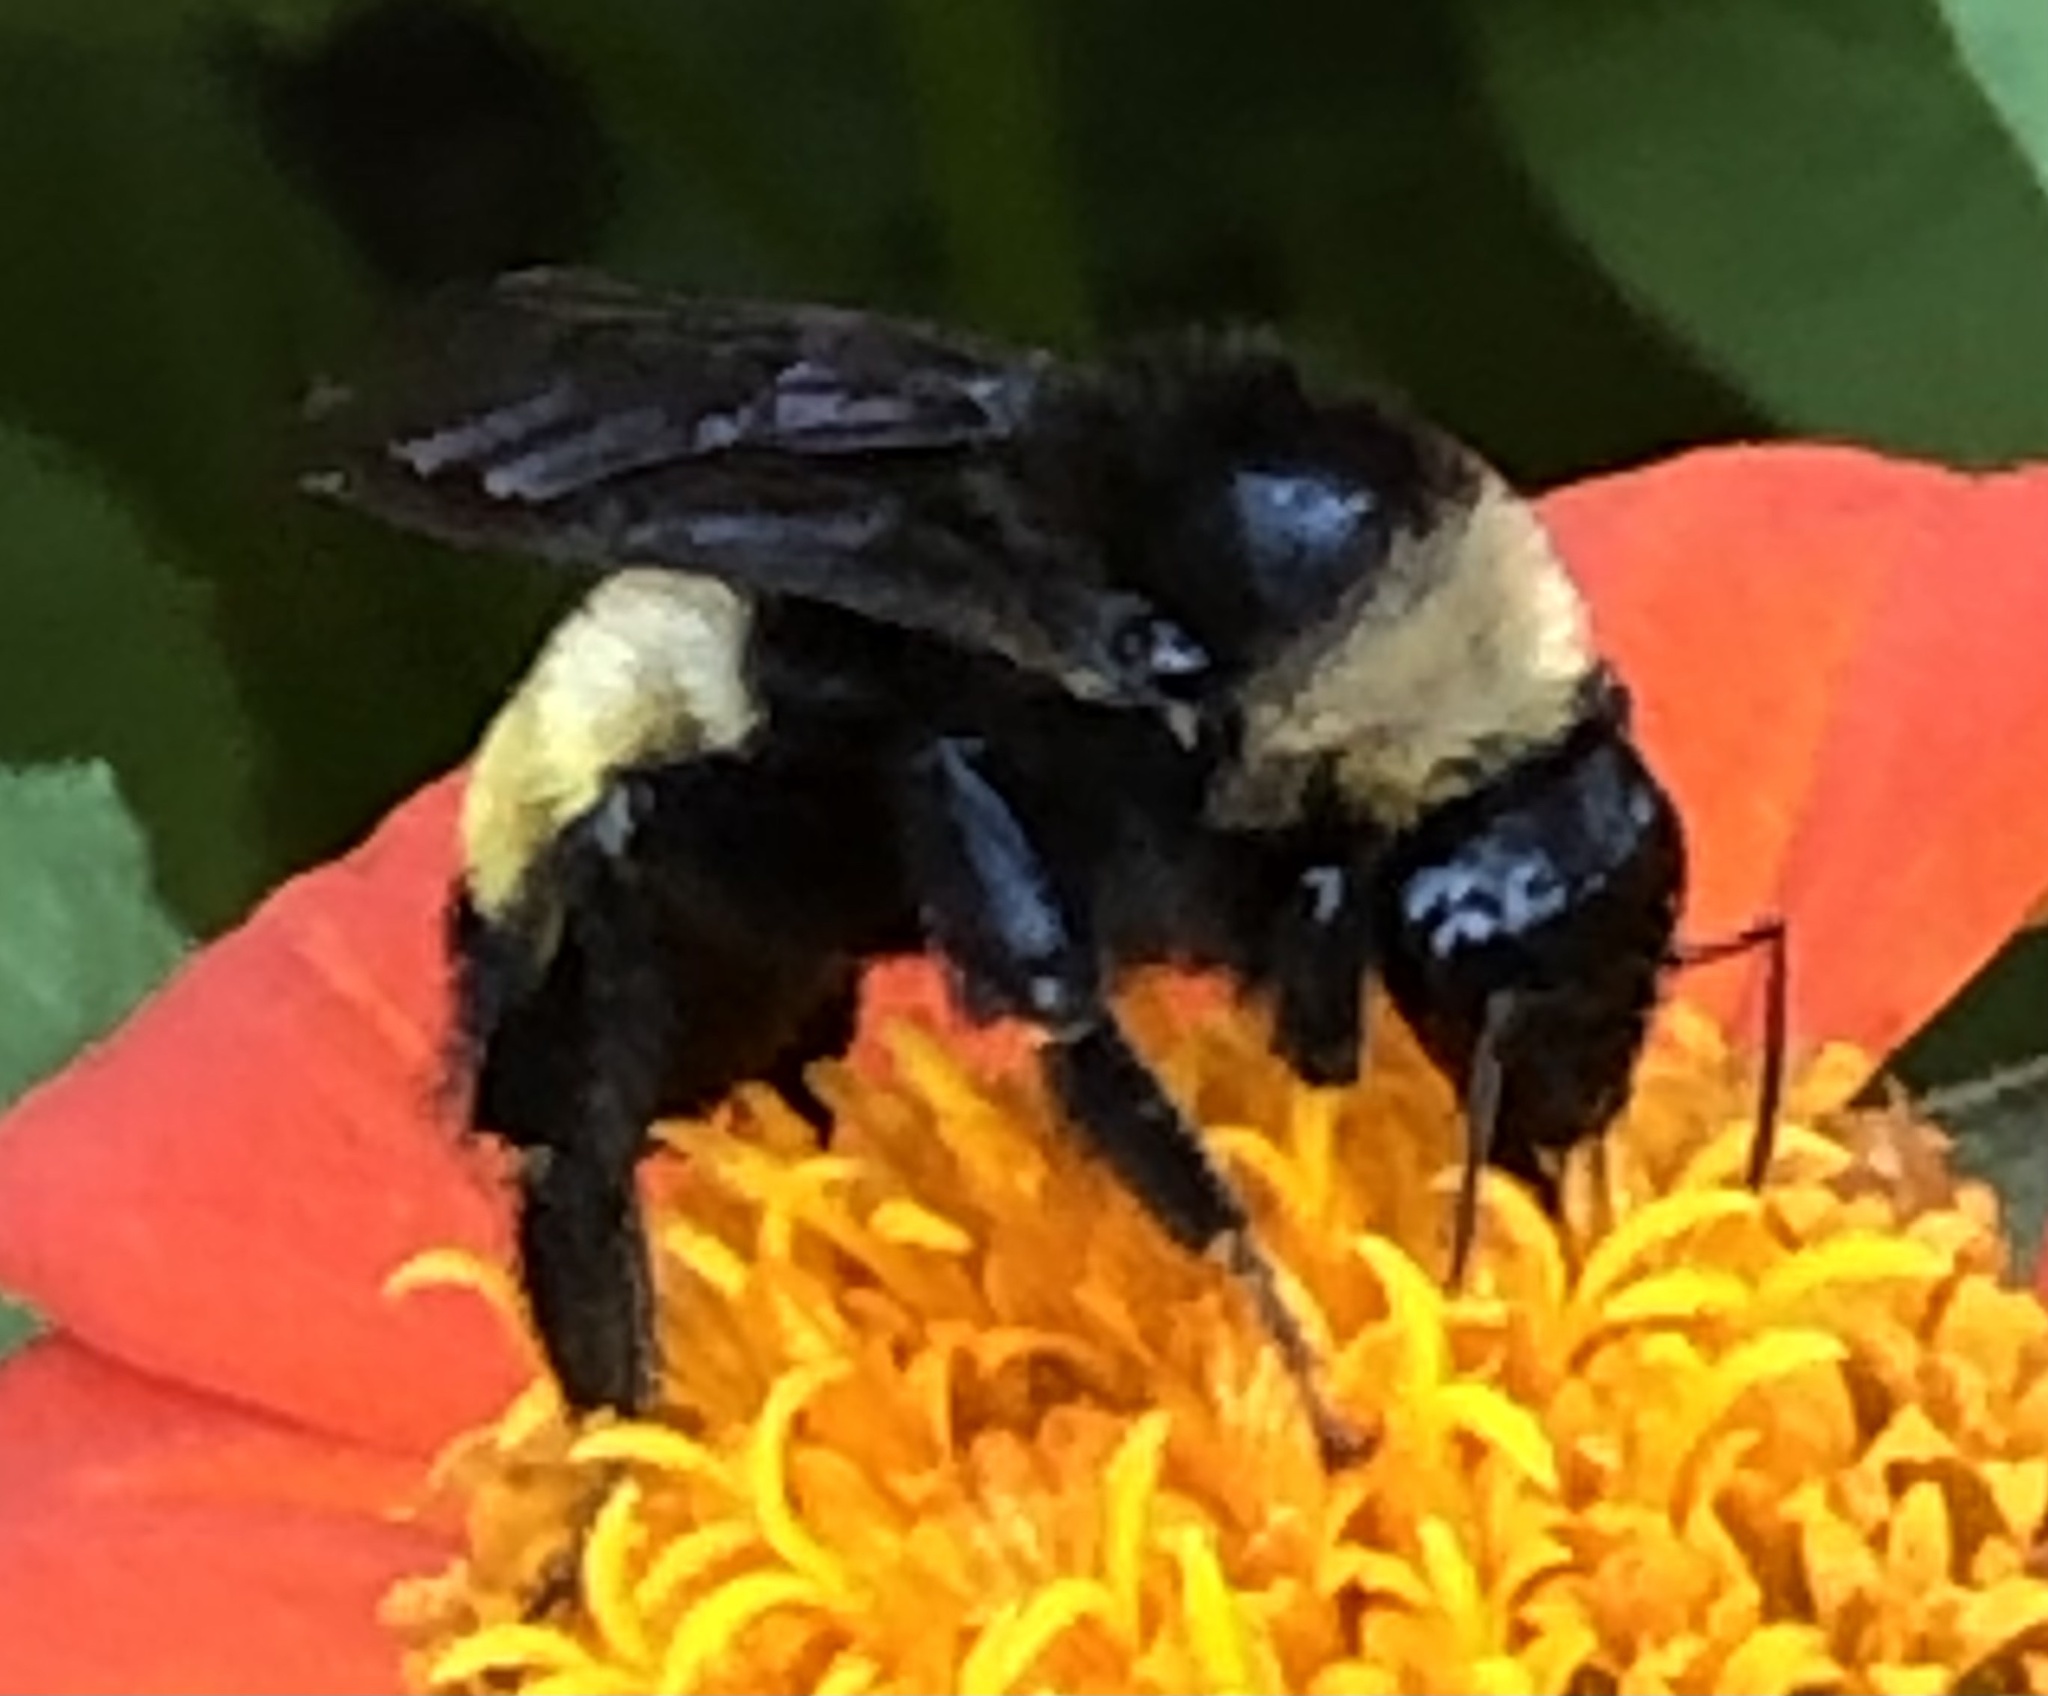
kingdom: Animalia
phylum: Arthropoda
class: Insecta
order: Hymenoptera
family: Apidae
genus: Bombus
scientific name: Bombus pensylvanicus
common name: Bumble bee
